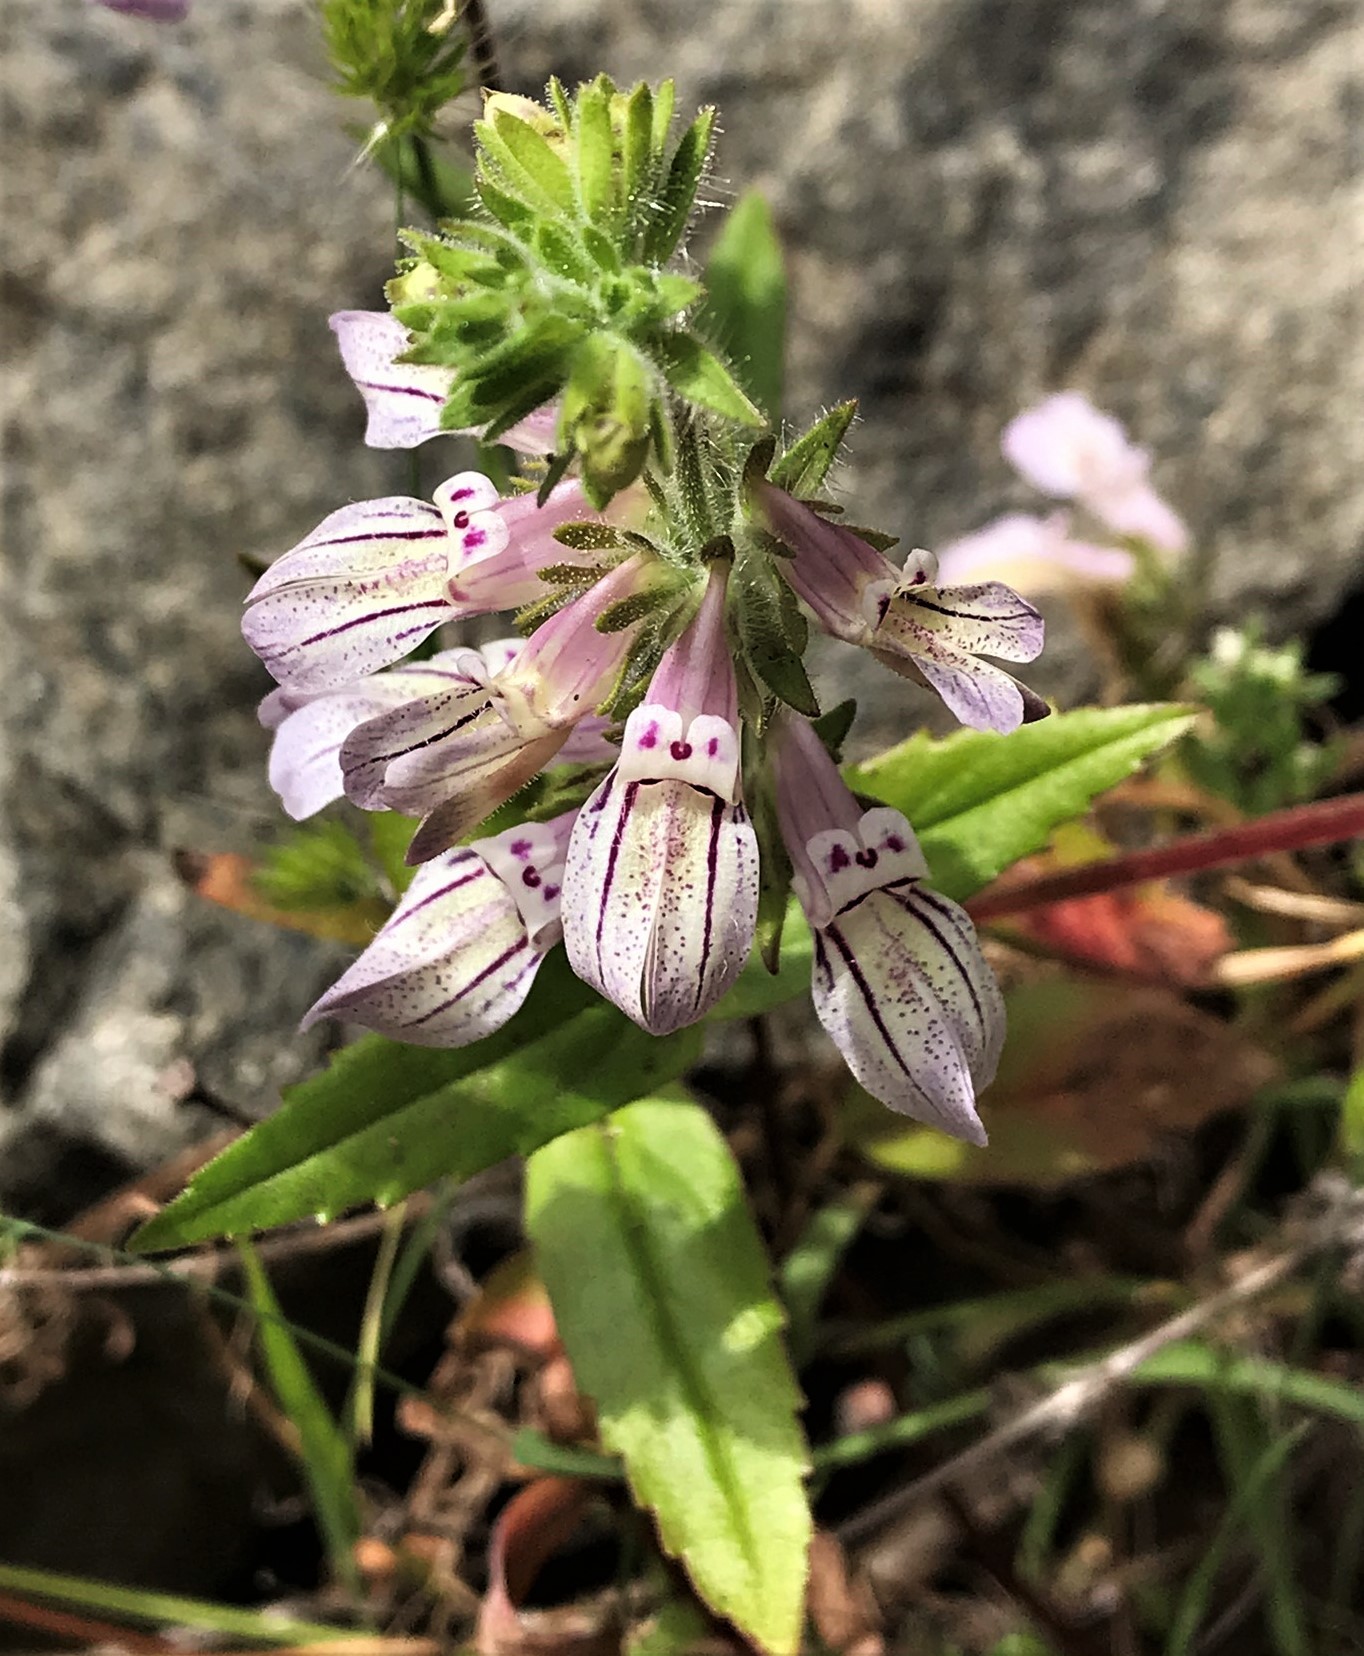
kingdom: Plantae
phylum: Tracheophyta
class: Magnoliopsida
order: Lamiales
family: Plantaginaceae
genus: Collinsia
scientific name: Collinsia tinctoria
